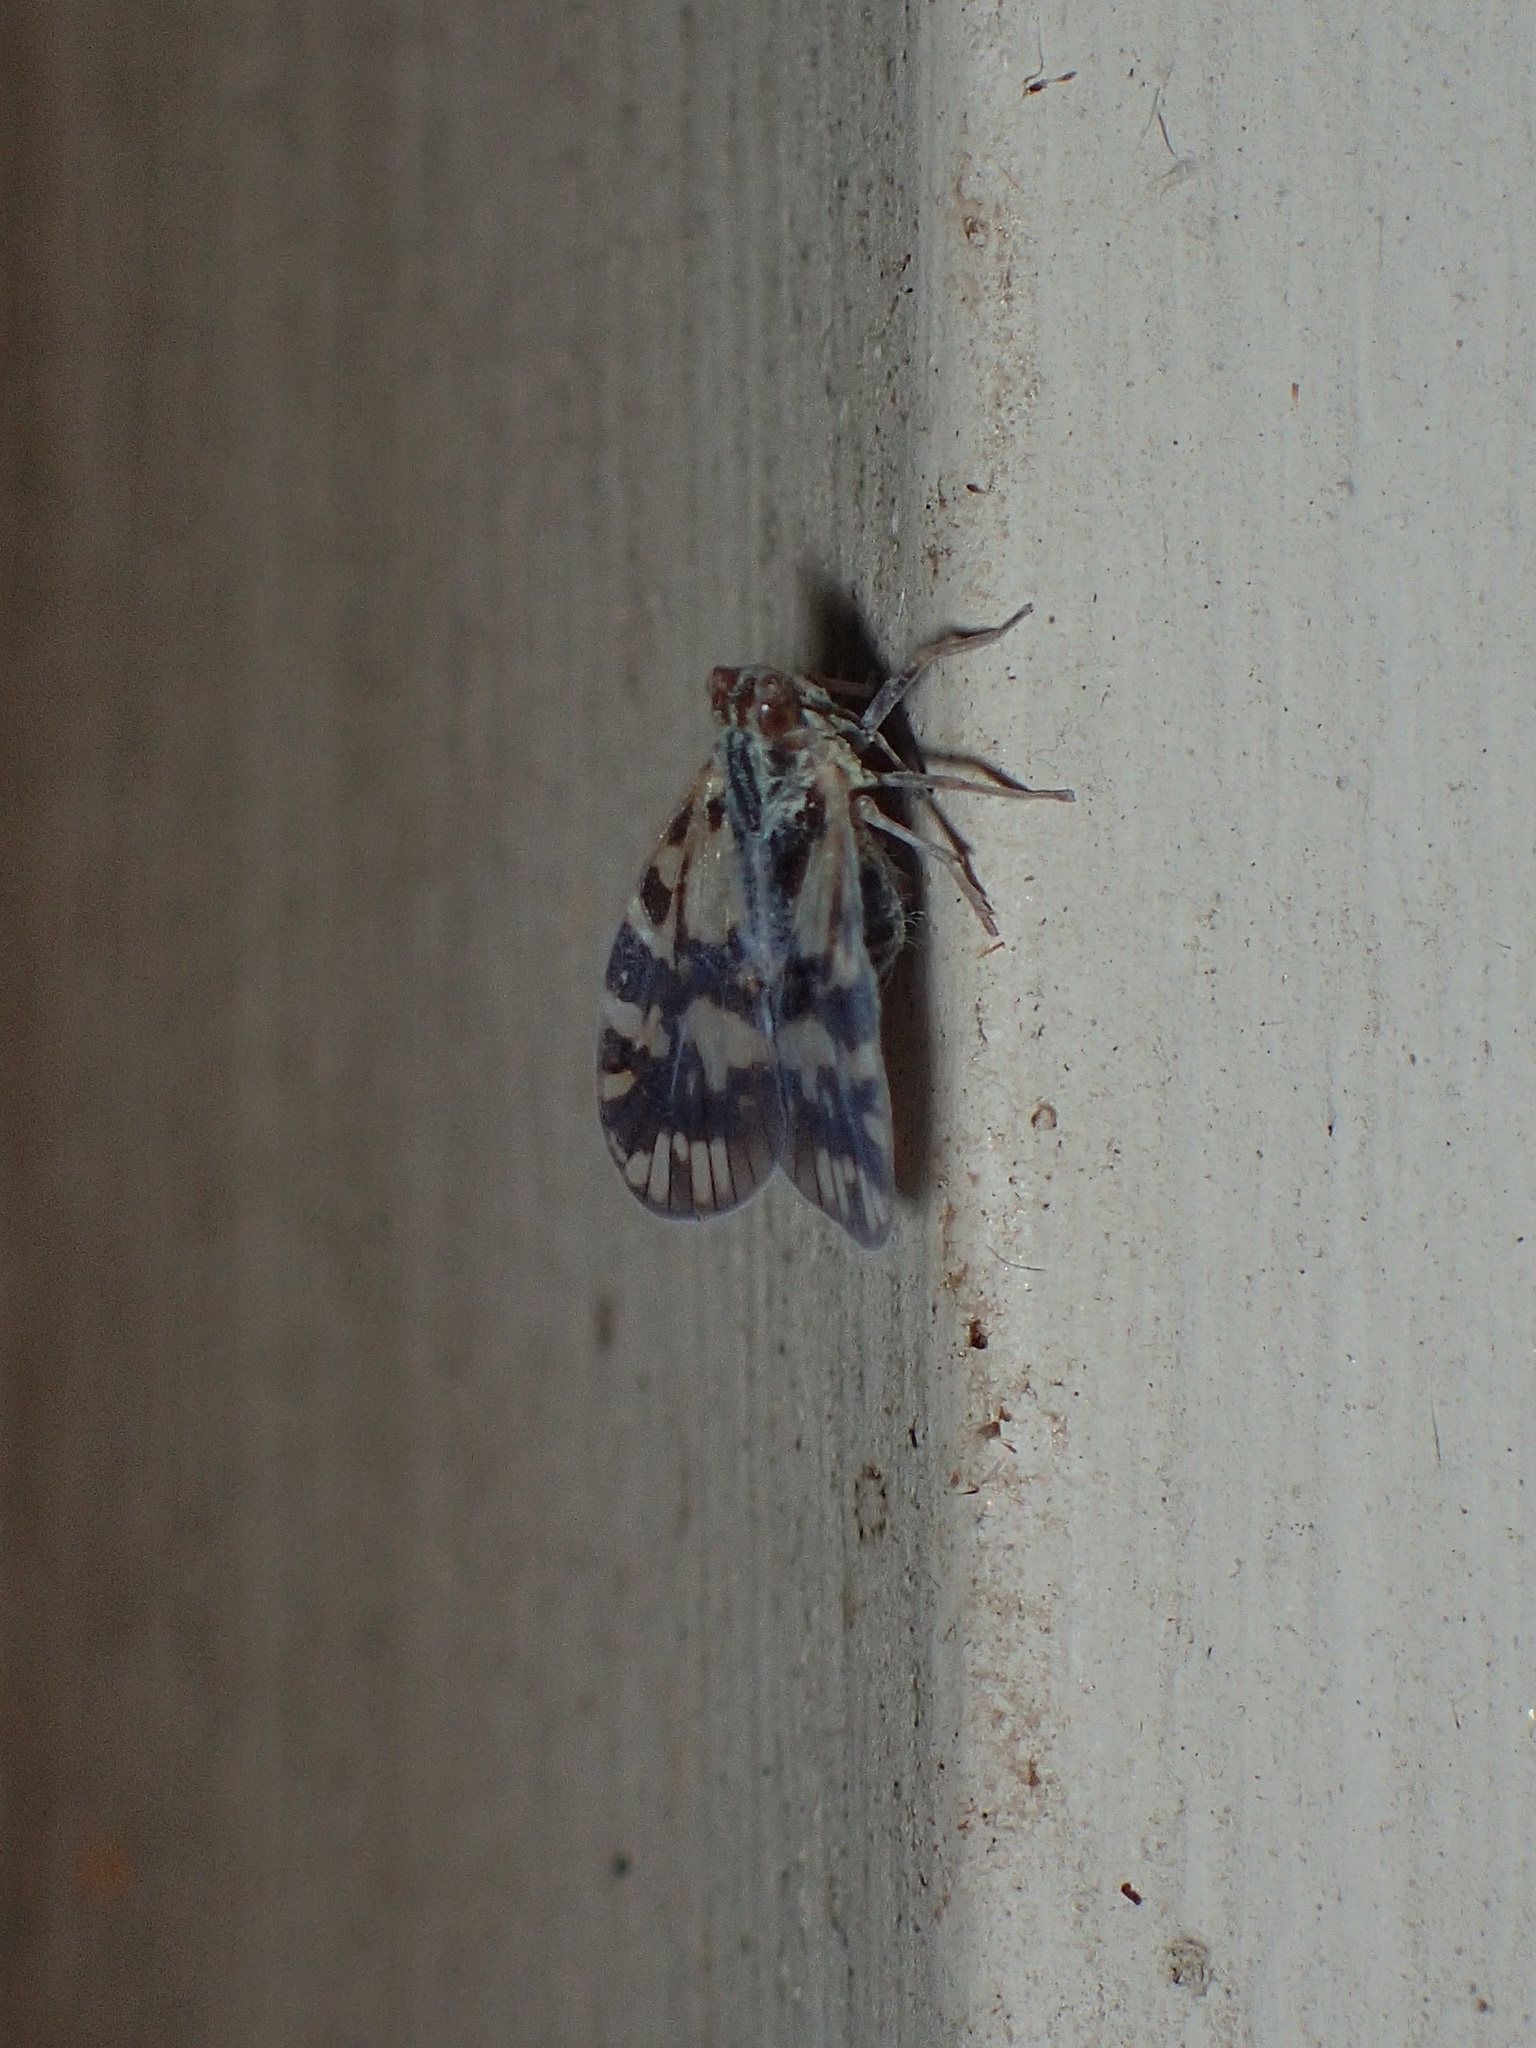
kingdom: Animalia
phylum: Arthropoda
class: Insecta
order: Hemiptera
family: Cixiidae
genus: Bothriocera
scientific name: Bothriocera cognita
